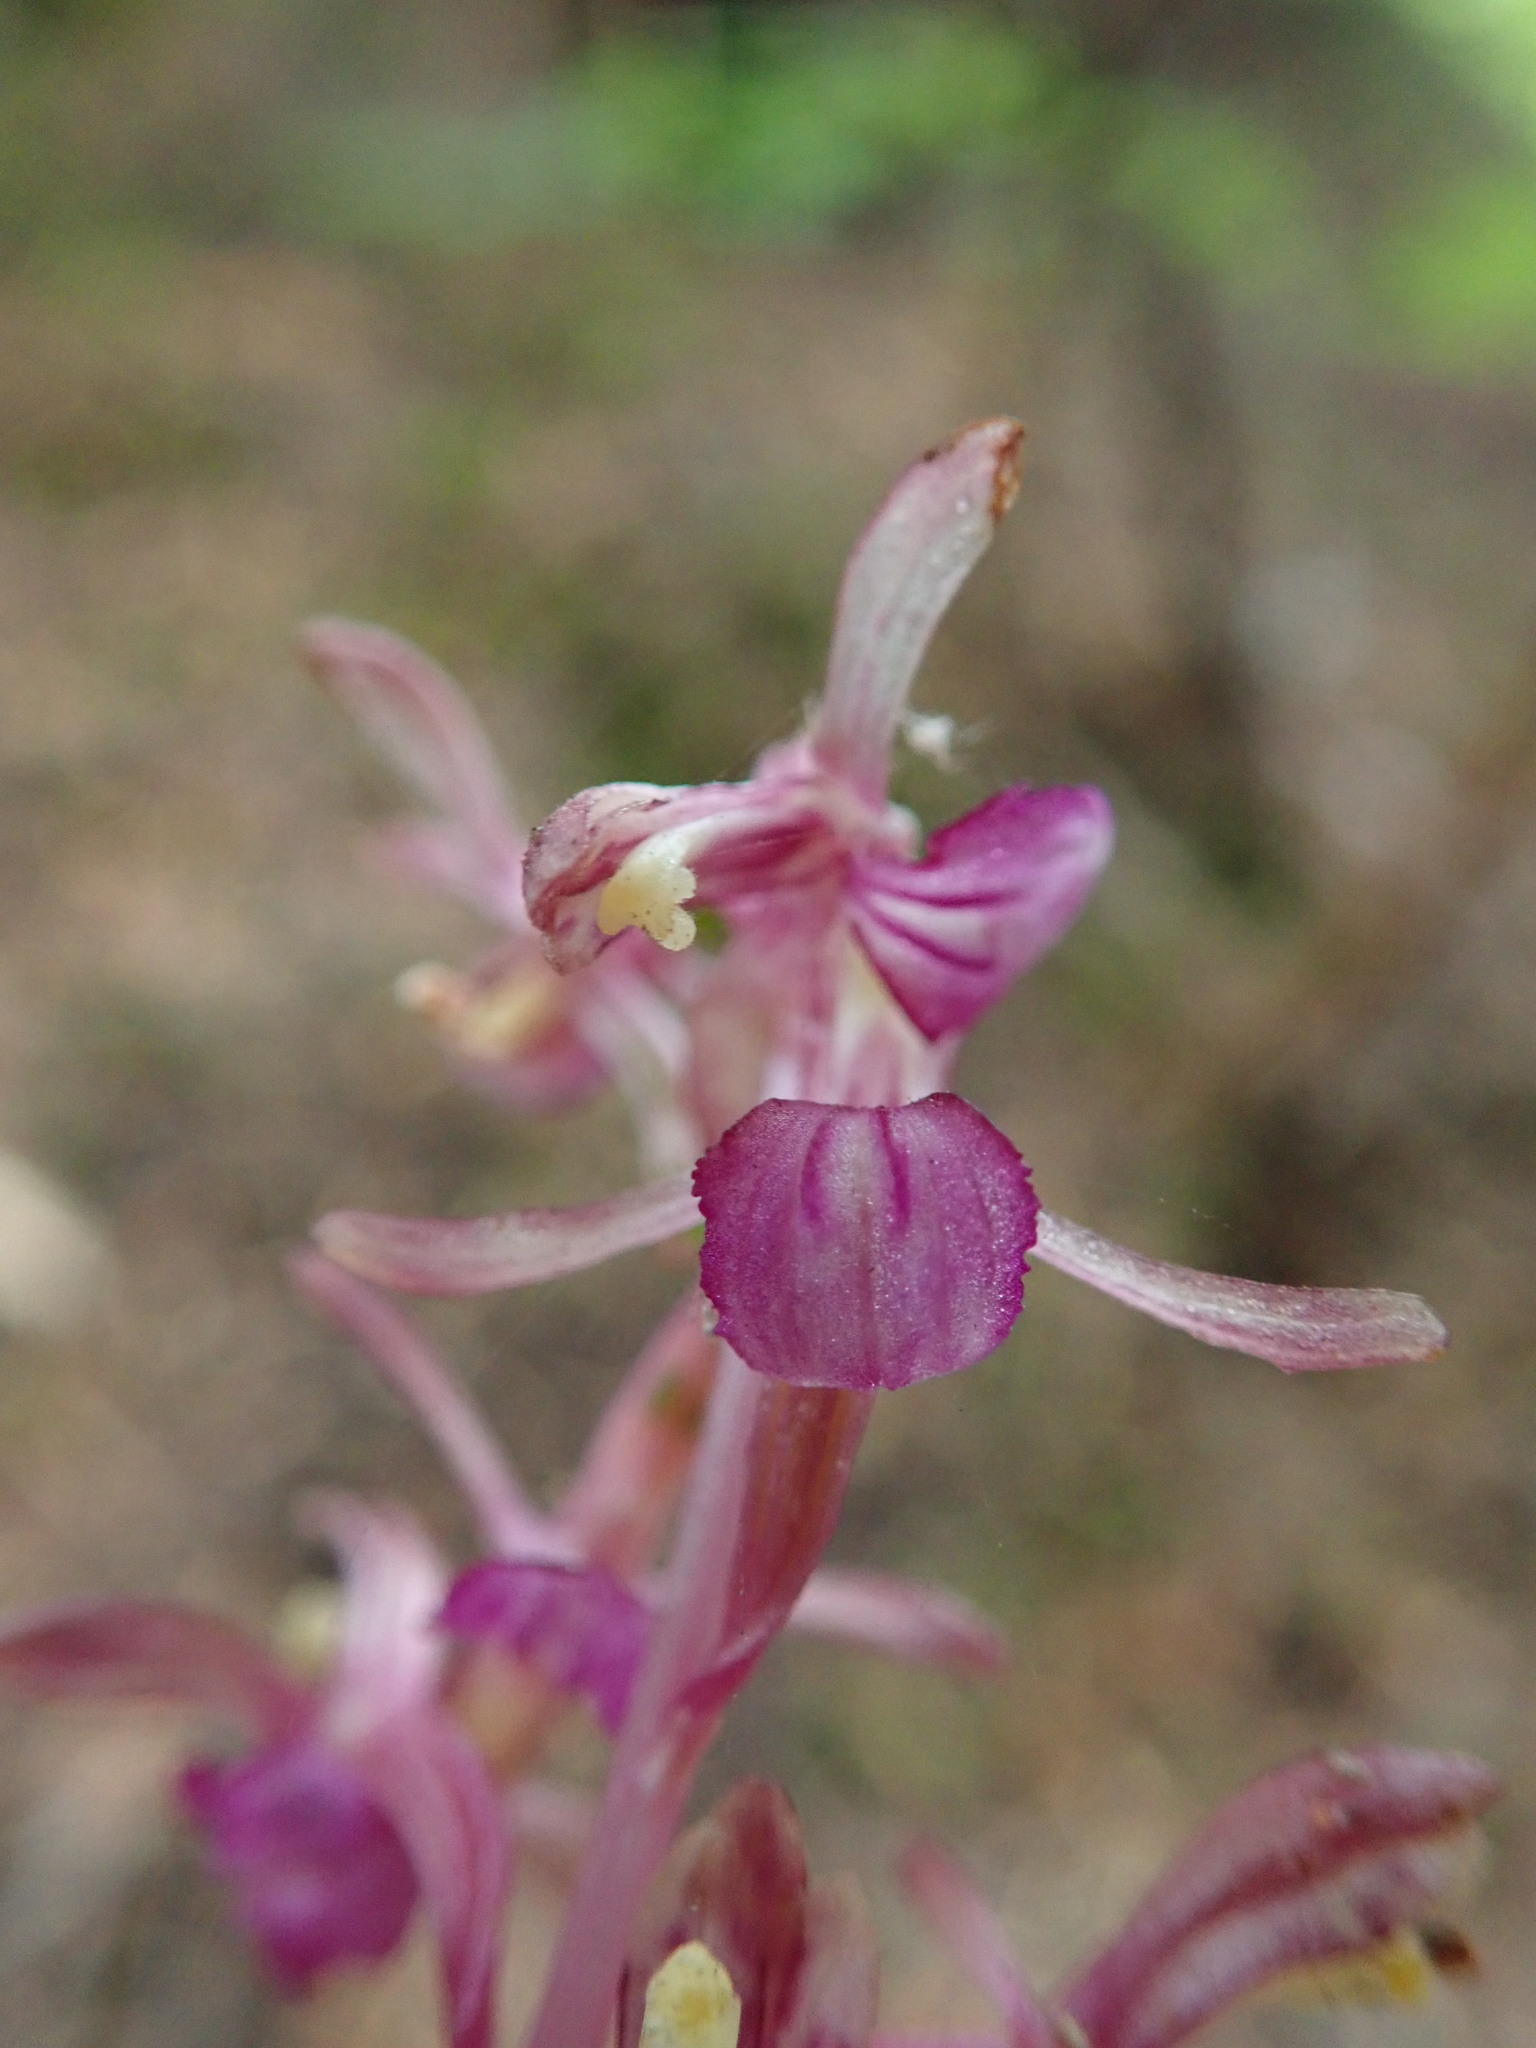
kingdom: Plantae
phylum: Tracheophyta
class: Liliopsida
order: Asparagales
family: Orchidaceae
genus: Corallorhiza
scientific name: Corallorhiza mertensiana
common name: Pacific coralroot
